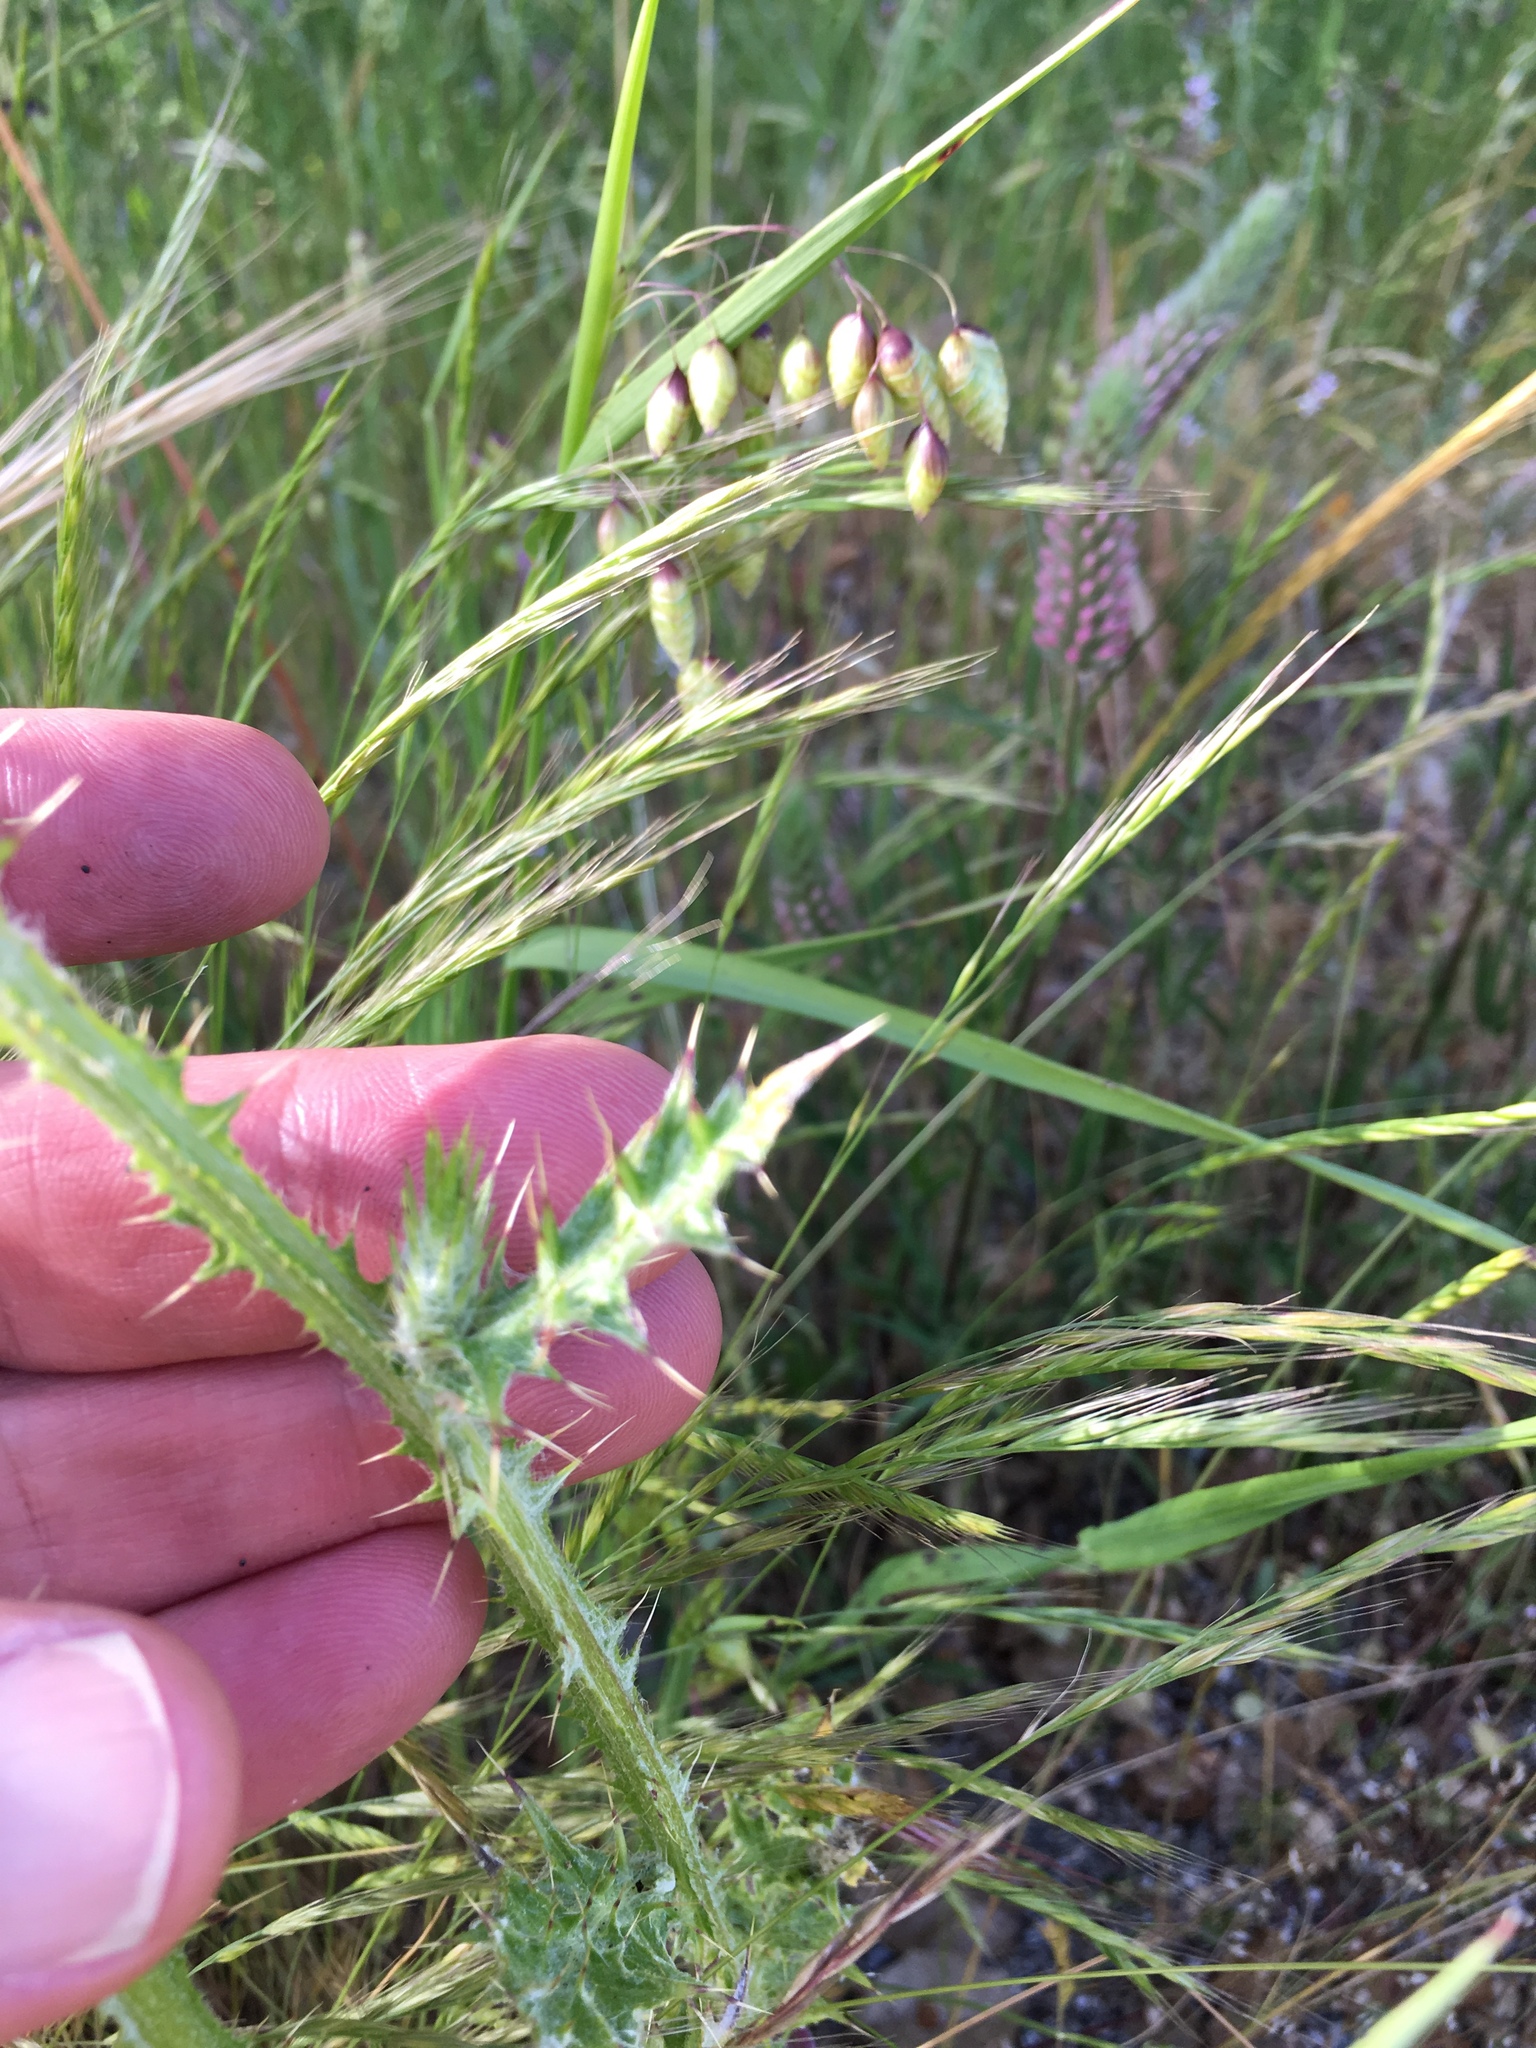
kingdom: Plantae
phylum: Tracheophyta
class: Magnoliopsida
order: Asterales
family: Asteraceae
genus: Carduus
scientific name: Carduus pycnocephalus
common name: Plymouth thistle
